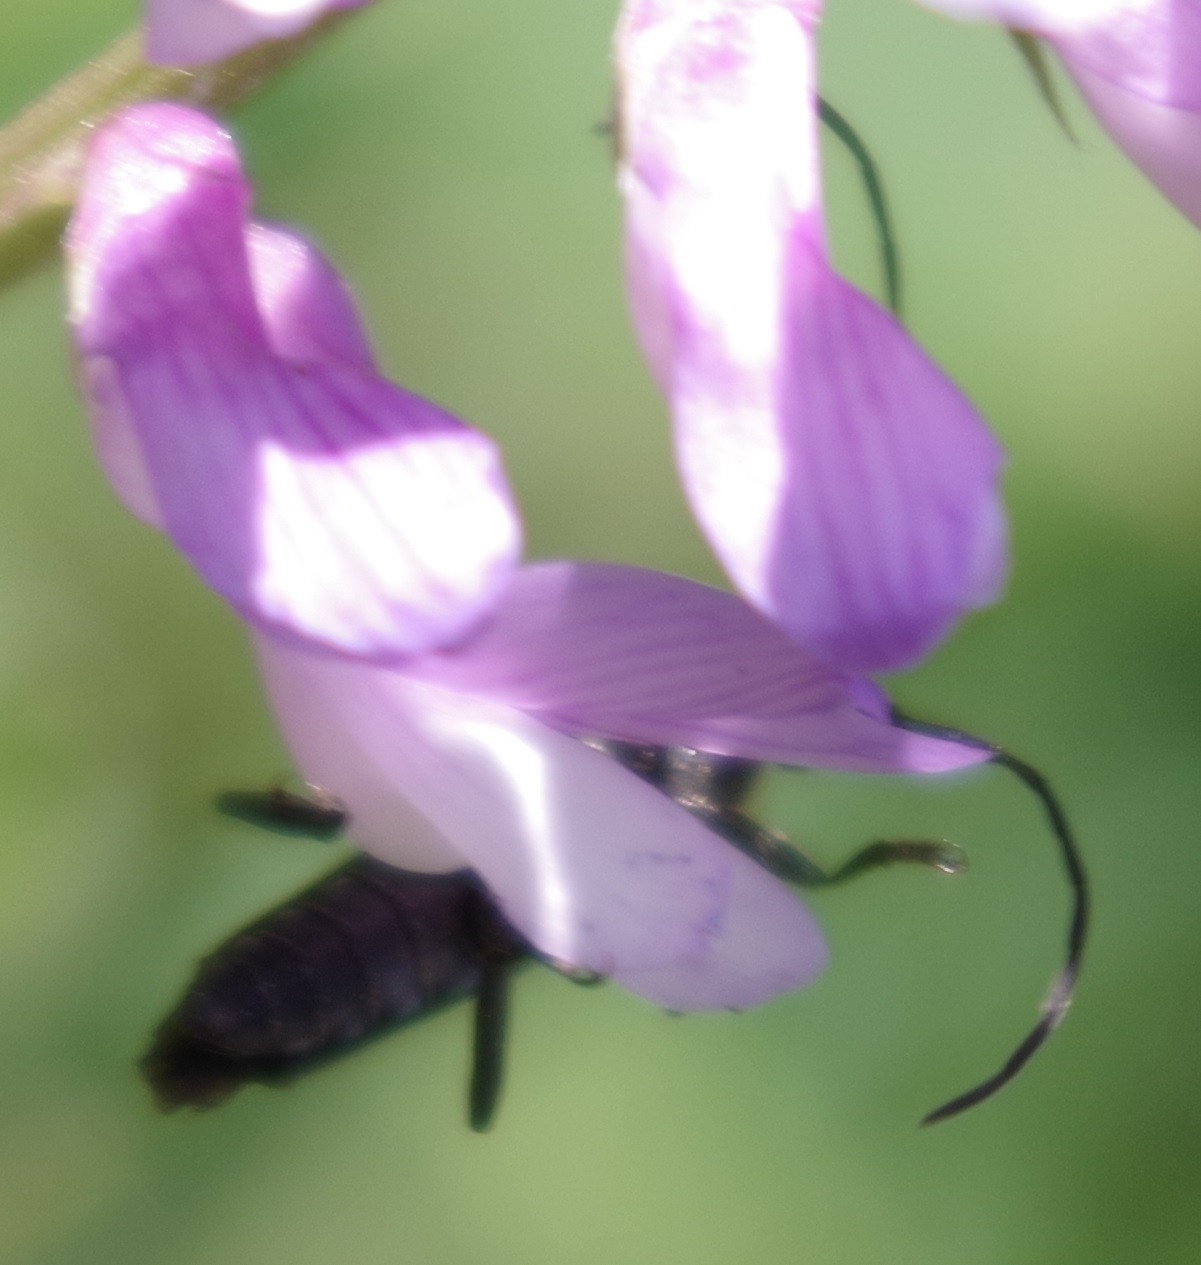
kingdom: Animalia
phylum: Arthropoda
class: Insecta
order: Coleoptera
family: Cerambycidae
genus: Anoplodera
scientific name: Anoplodera sexguttata
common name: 6 spotted longhorn
